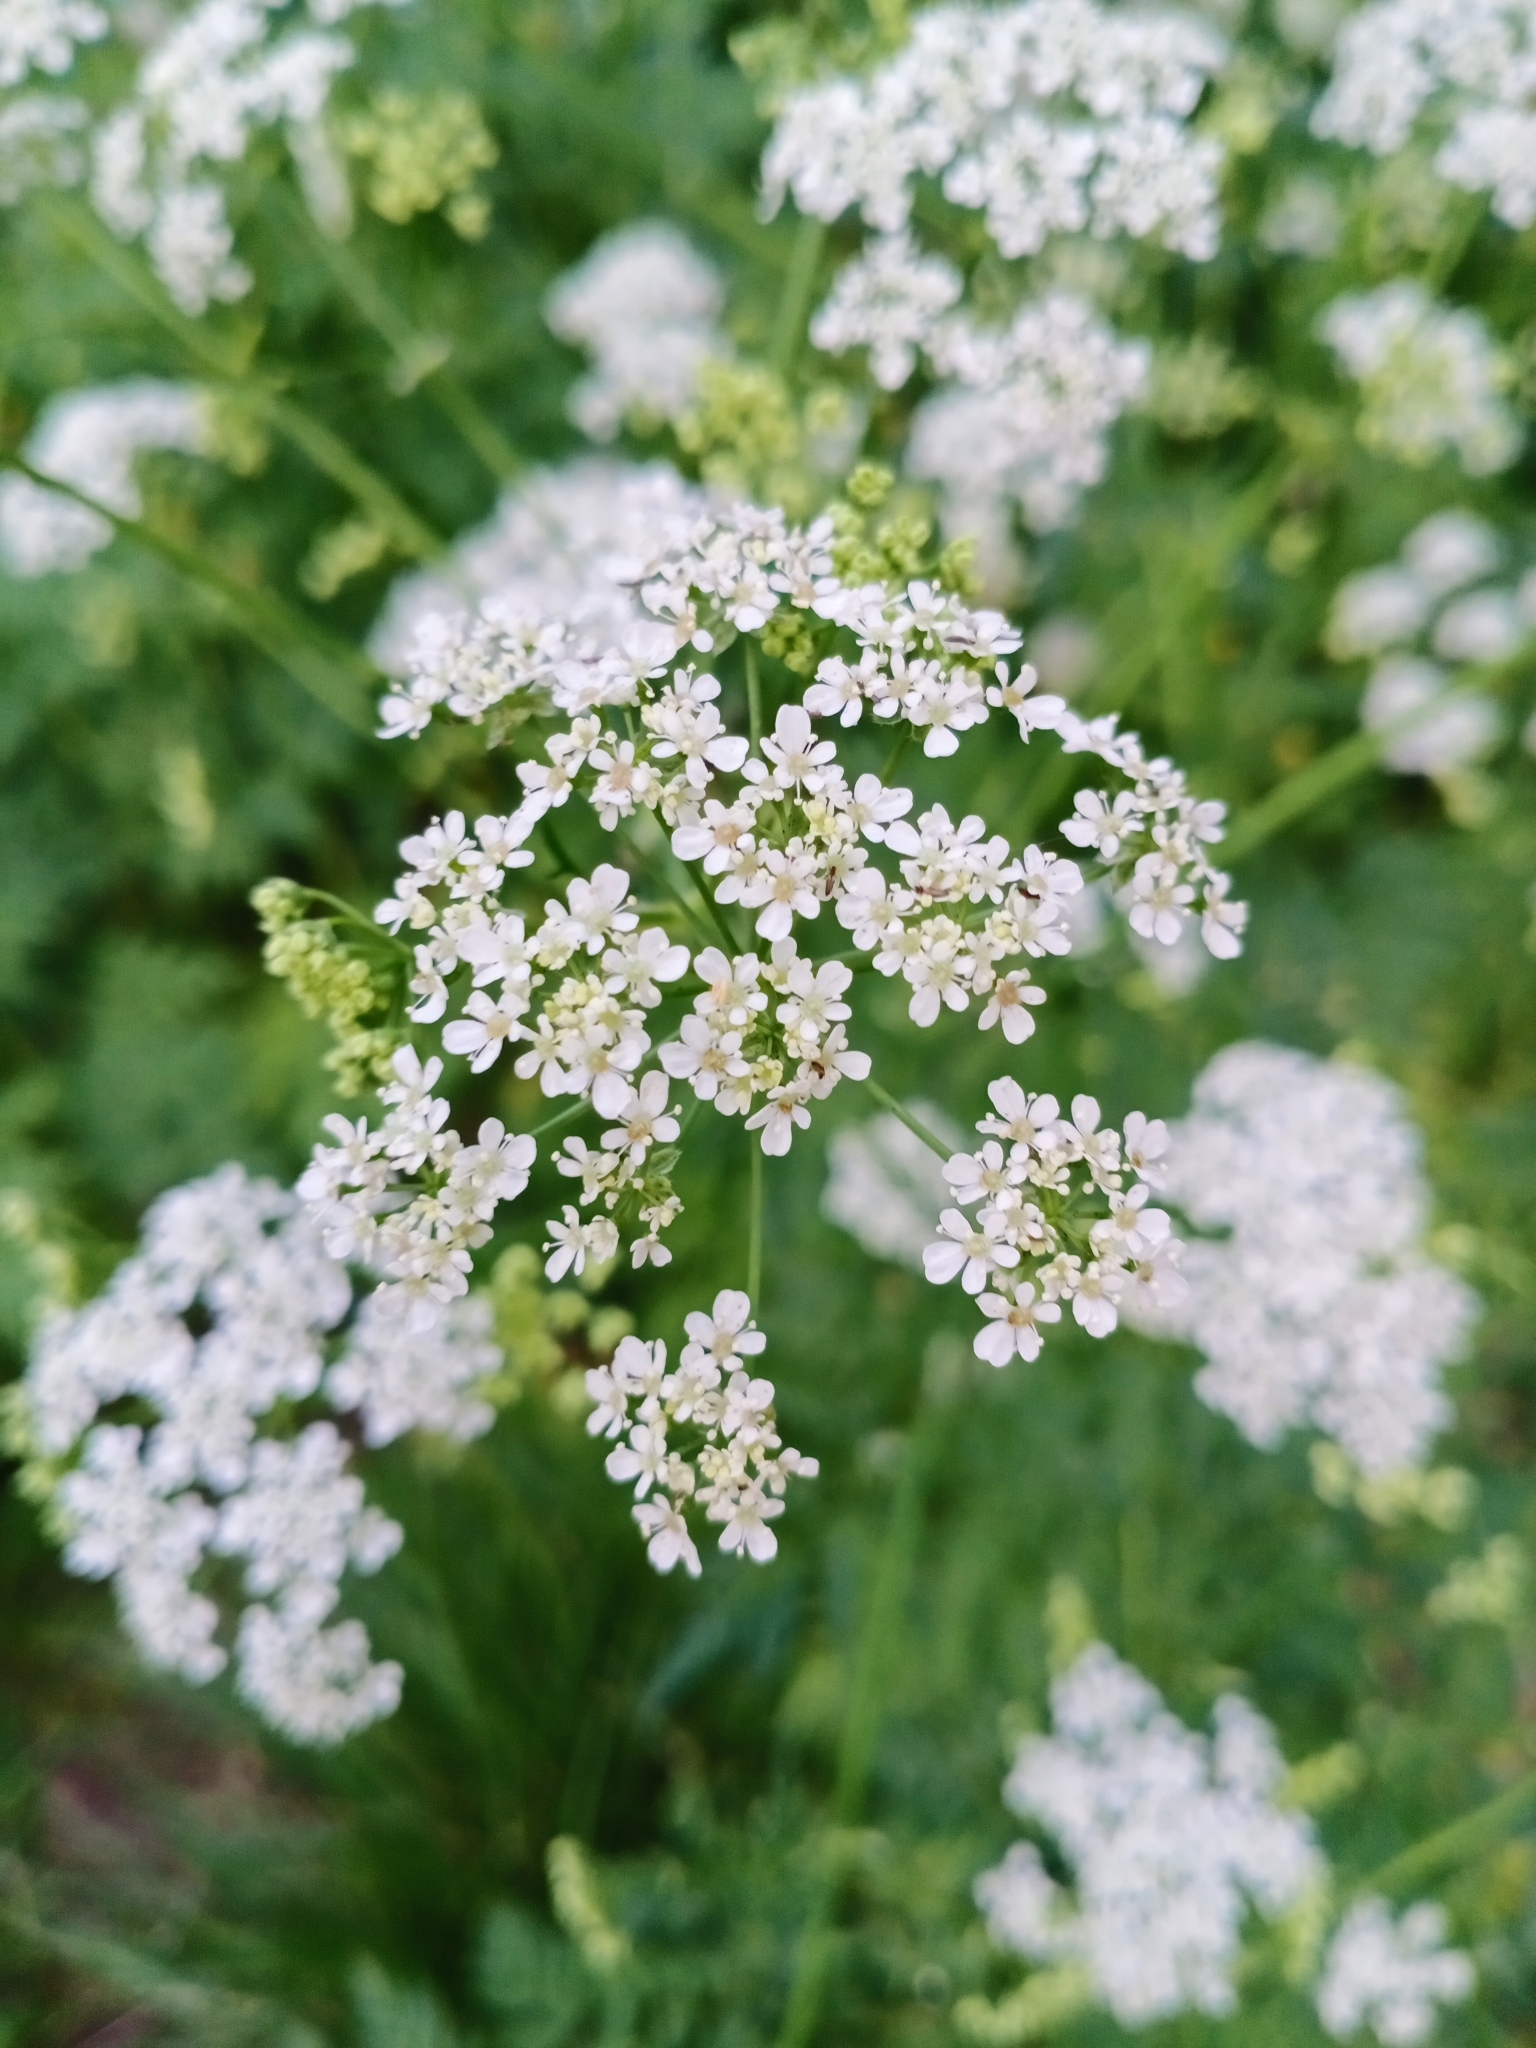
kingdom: Plantae
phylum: Tracheophyta
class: Magnoliopsida
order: Apiales
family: Apiaceae
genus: Anthriscus
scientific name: Anthriscus sylvestris
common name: Cow parsley
